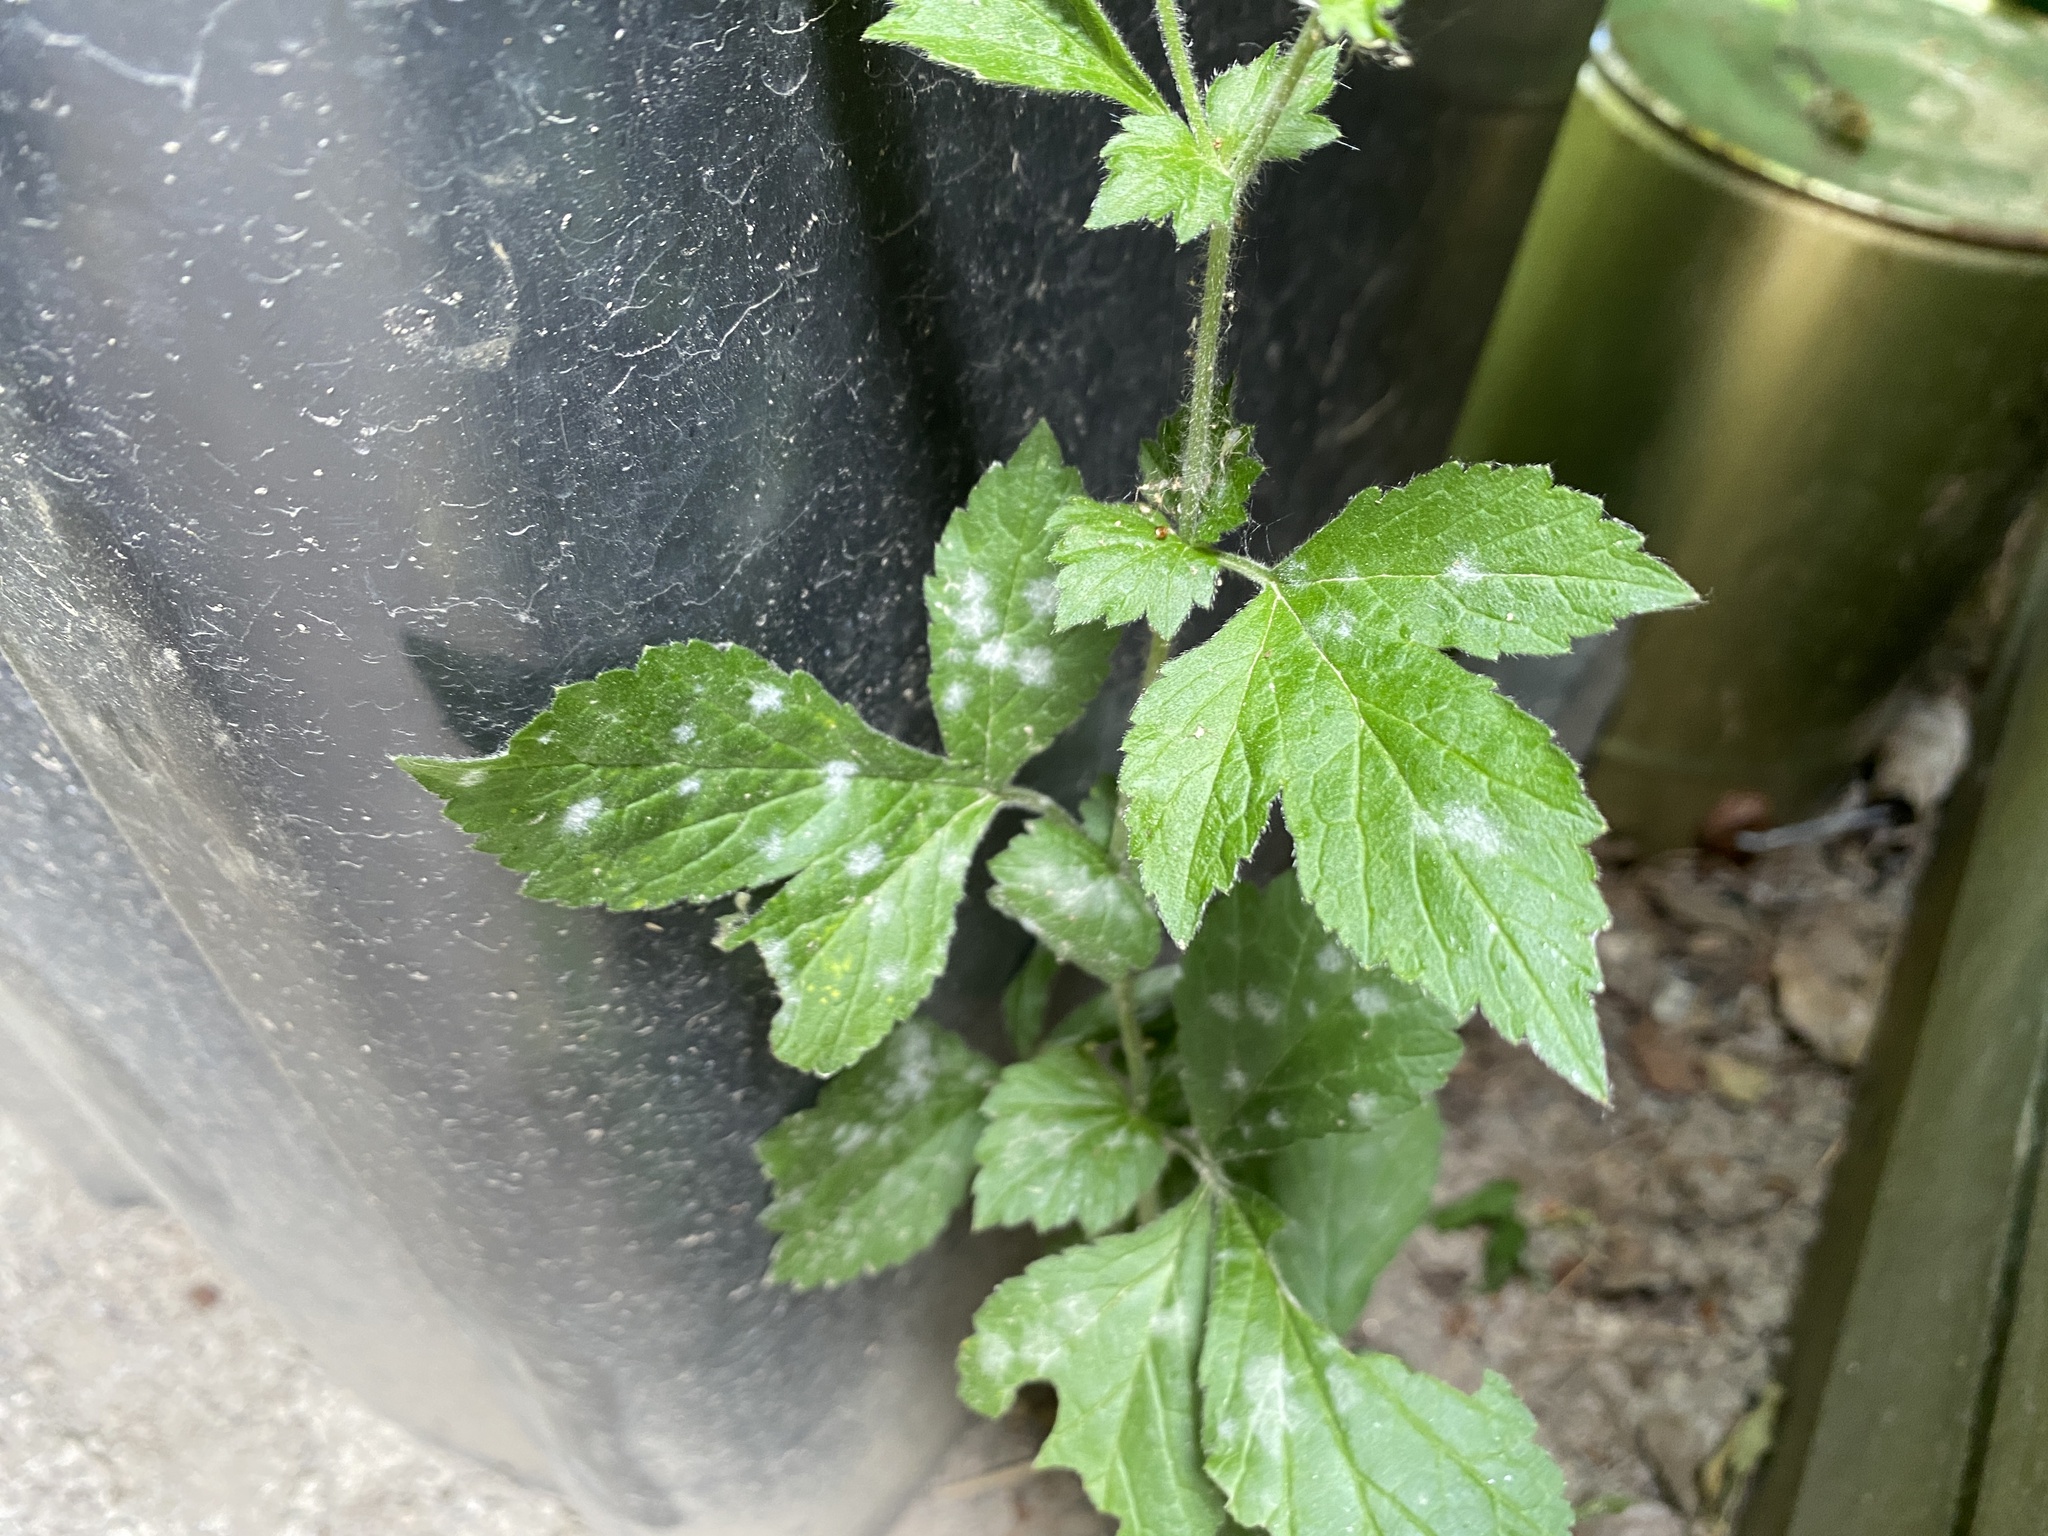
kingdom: Fungi
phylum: Ascomycota
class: Leotiomycetes
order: Helotiales
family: Erysiphaceae
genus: Podosphaera
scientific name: Podosphaera aphanis
